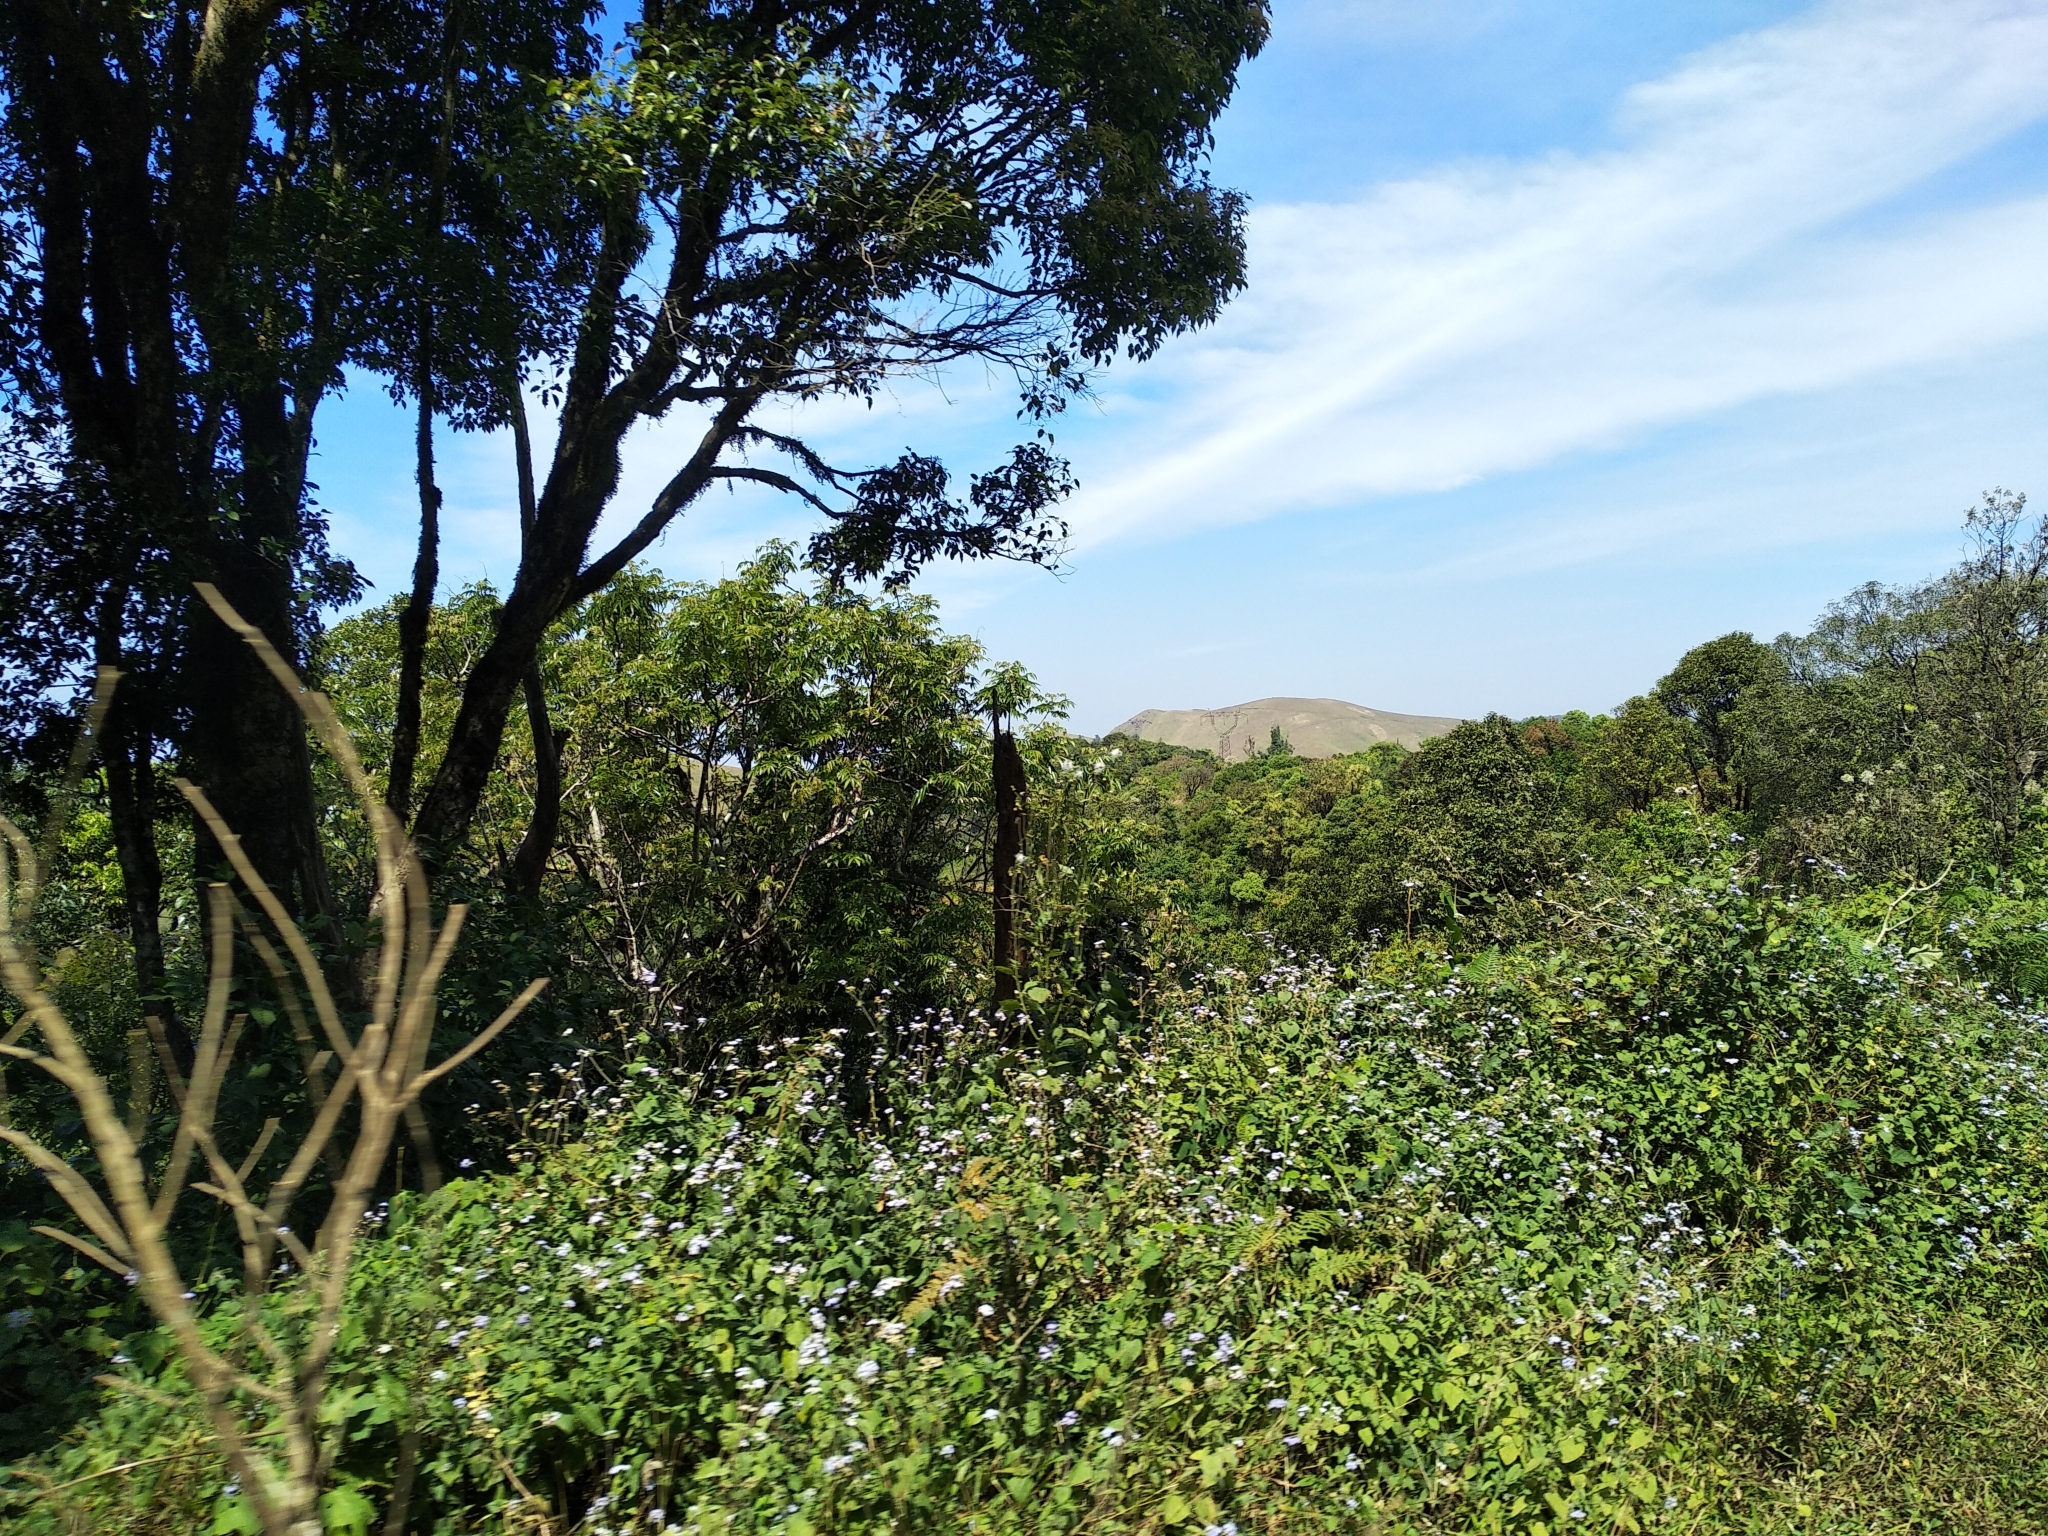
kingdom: Plantae
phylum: Tracheophyta
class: Magnoliopsida
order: Asterales
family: Asteraceae
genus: Chromolaena
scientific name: Chromolaena odorata
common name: Siamweed
